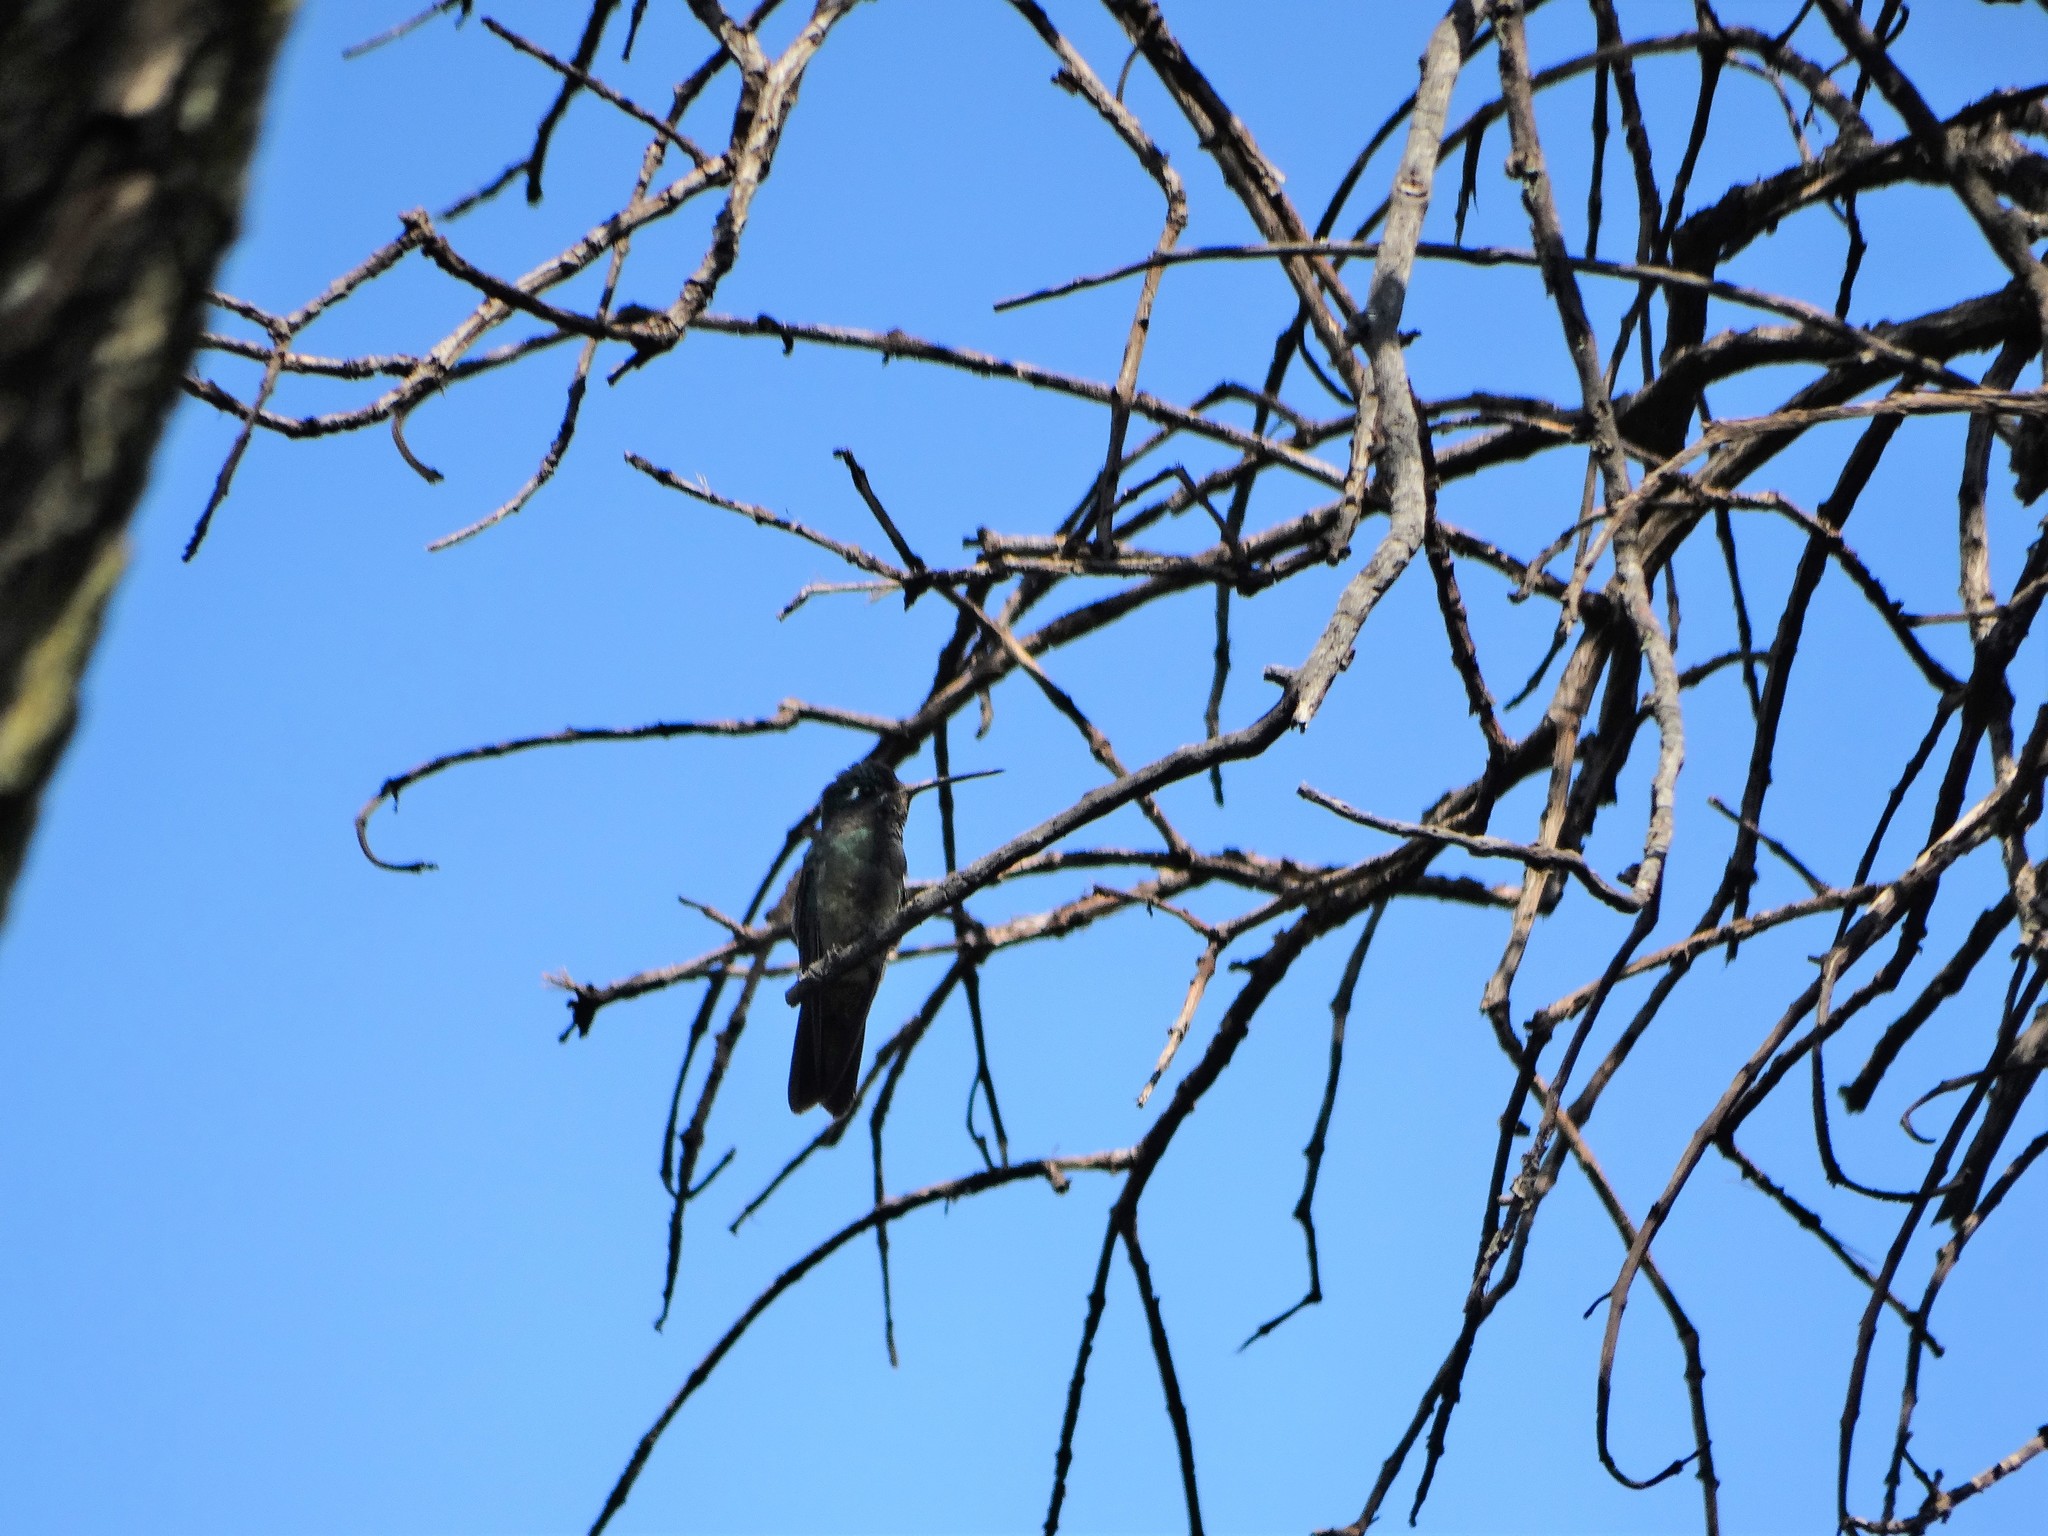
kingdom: Animalia
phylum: Chordata
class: Aves
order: Apodiformes
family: Trochilidae
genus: Eugenes
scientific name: Eugenes fulgens
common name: Magnificent hummingbird
